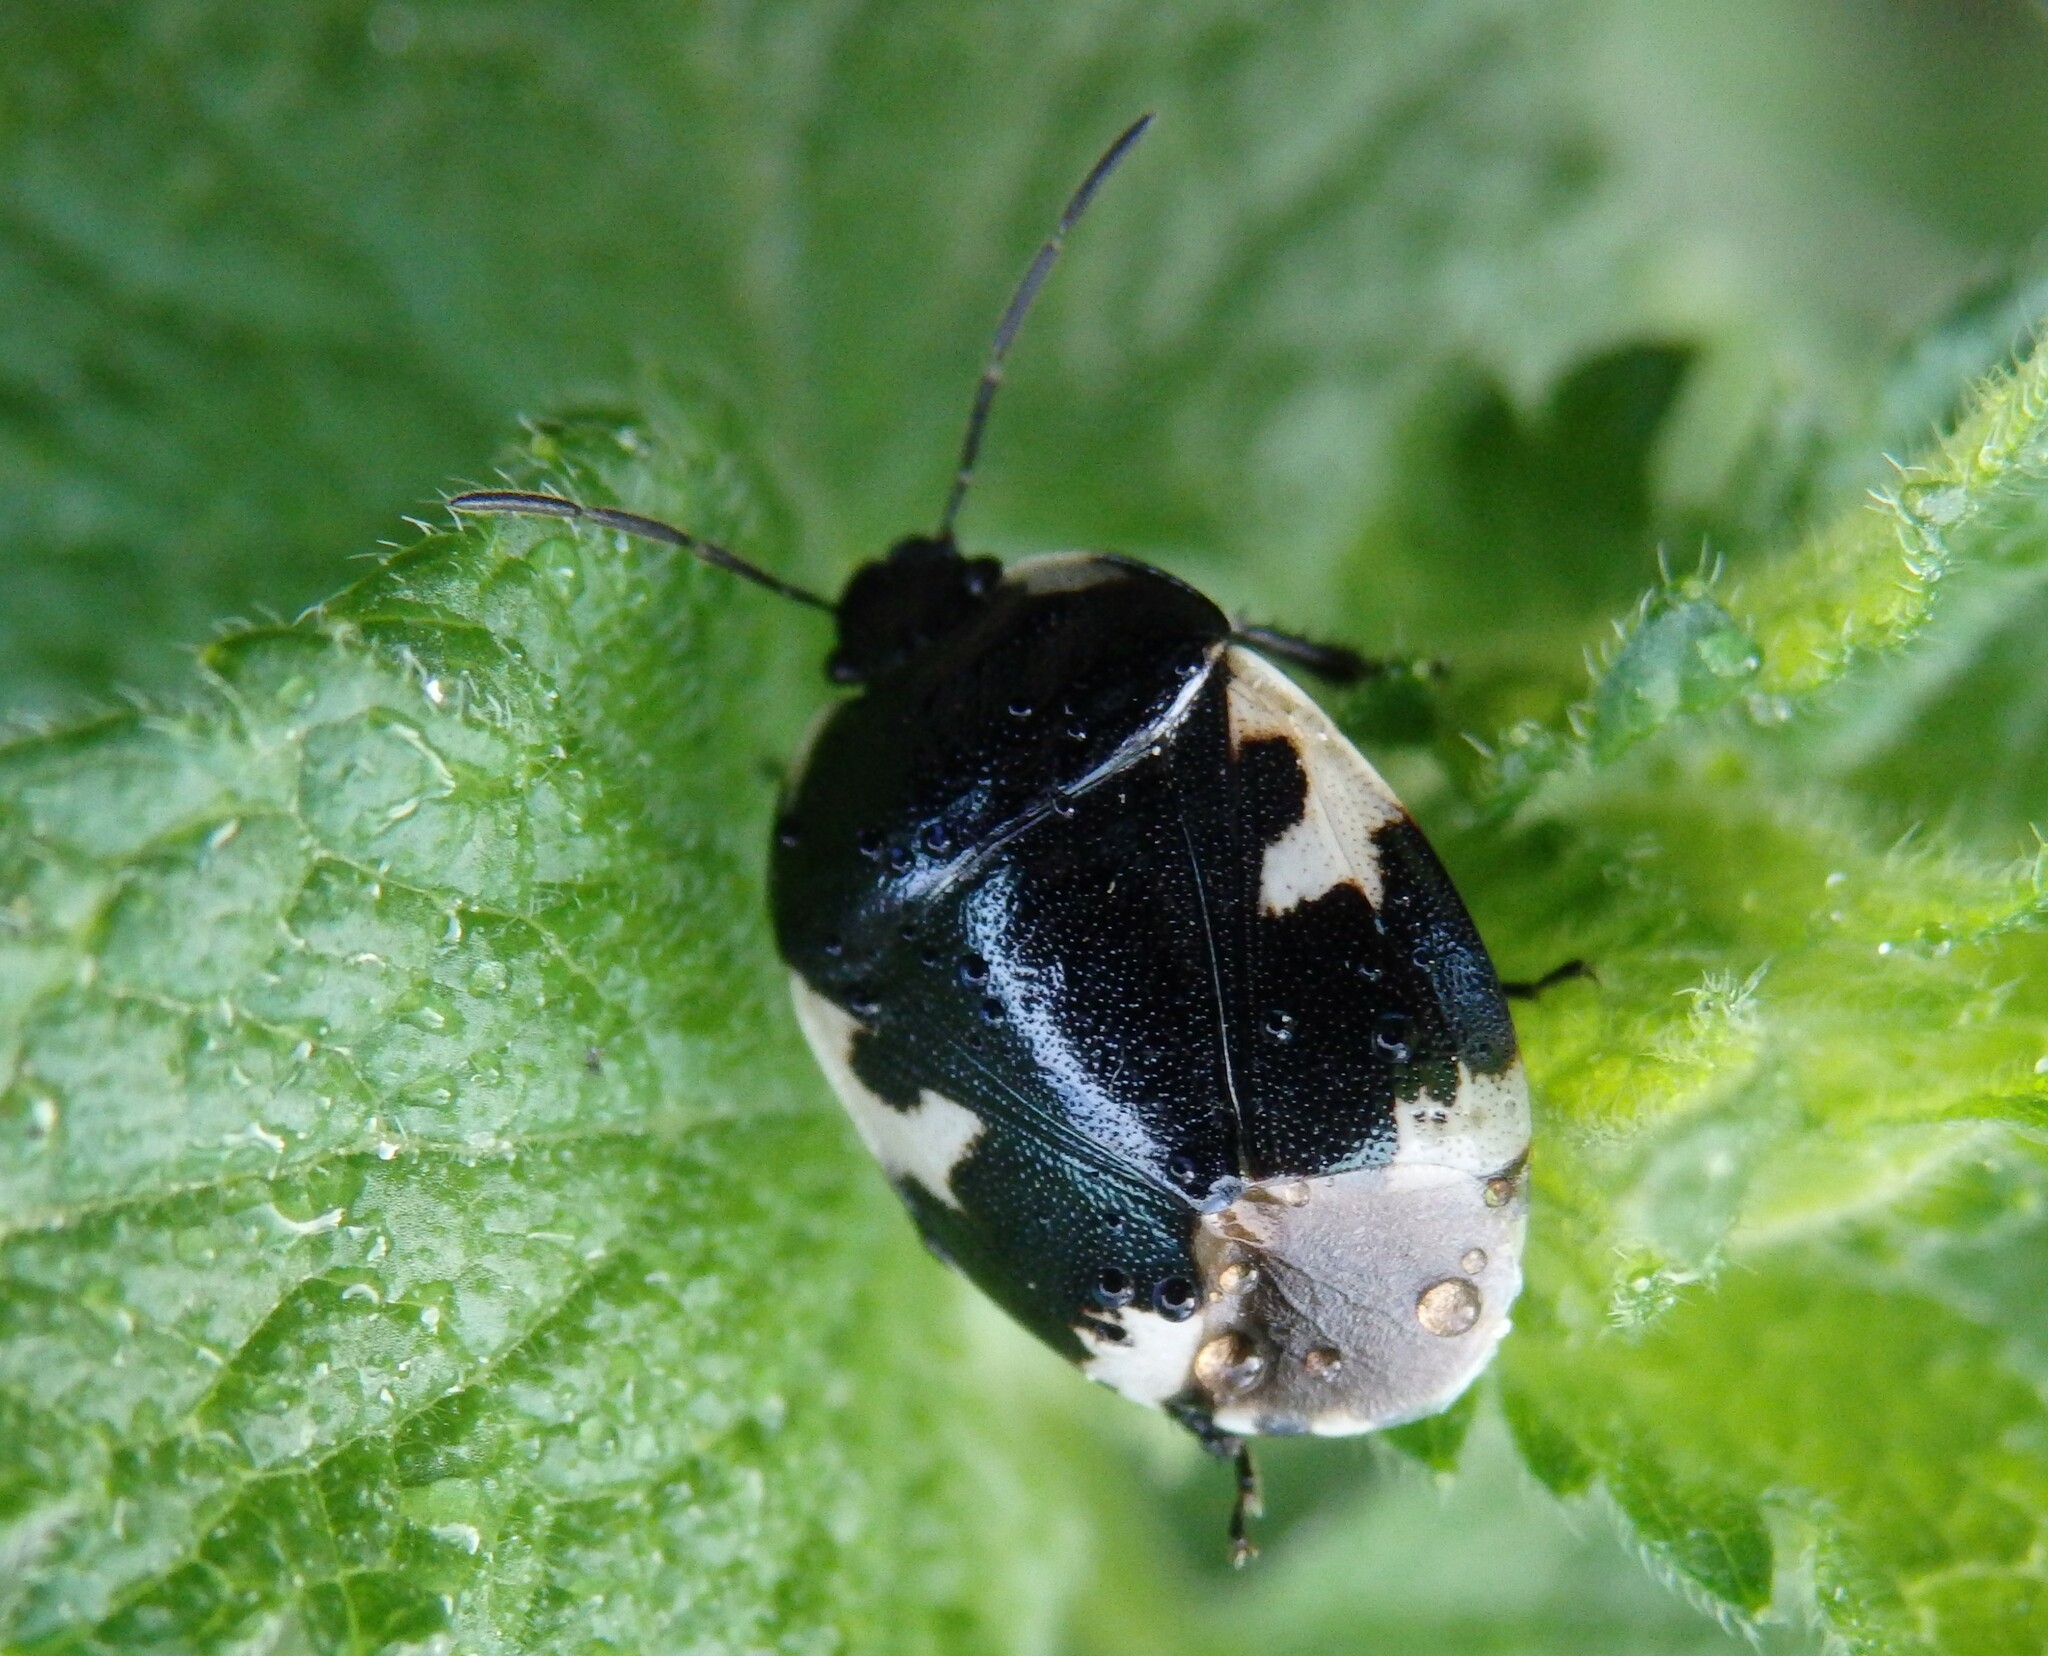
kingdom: Animalia
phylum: Arthropoda
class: Insecta
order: Hemiptera
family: Cydnidae
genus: Tritomegas
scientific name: Tritomegas bicolor
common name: Pied shieldbug
